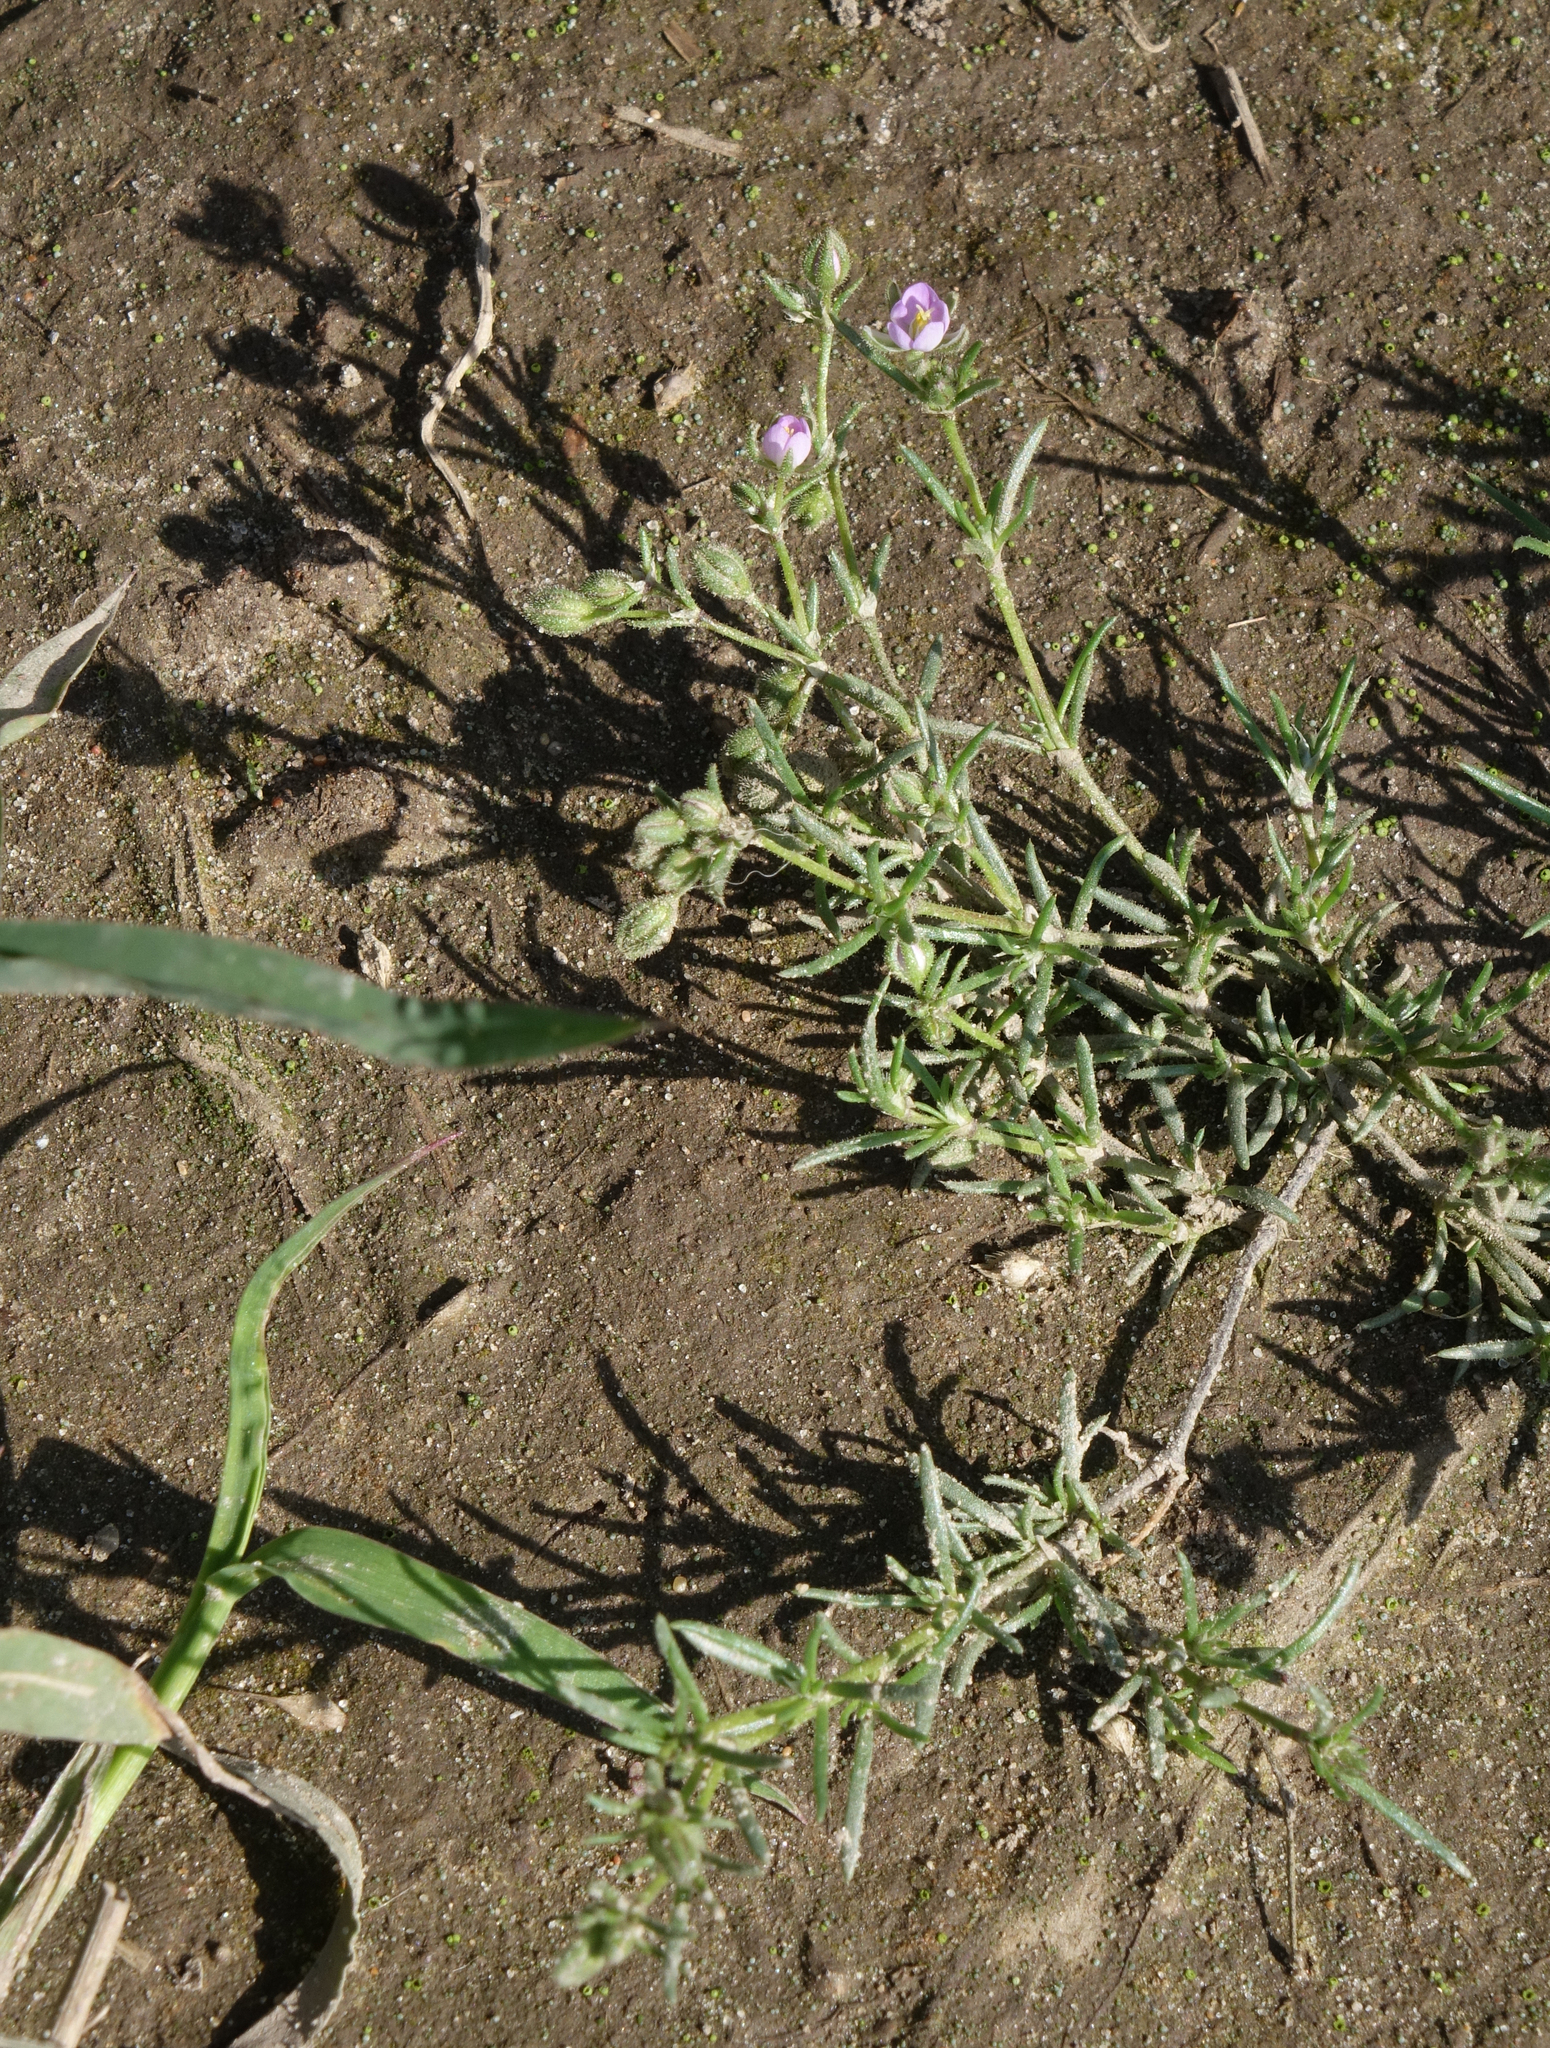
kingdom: Plantae
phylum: Tracheophyta
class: Magnoliopsida
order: Caryophyllales
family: Caryophyllaceae
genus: Spergularia
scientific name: Spergularia rubra
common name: Red sand-spurrey
